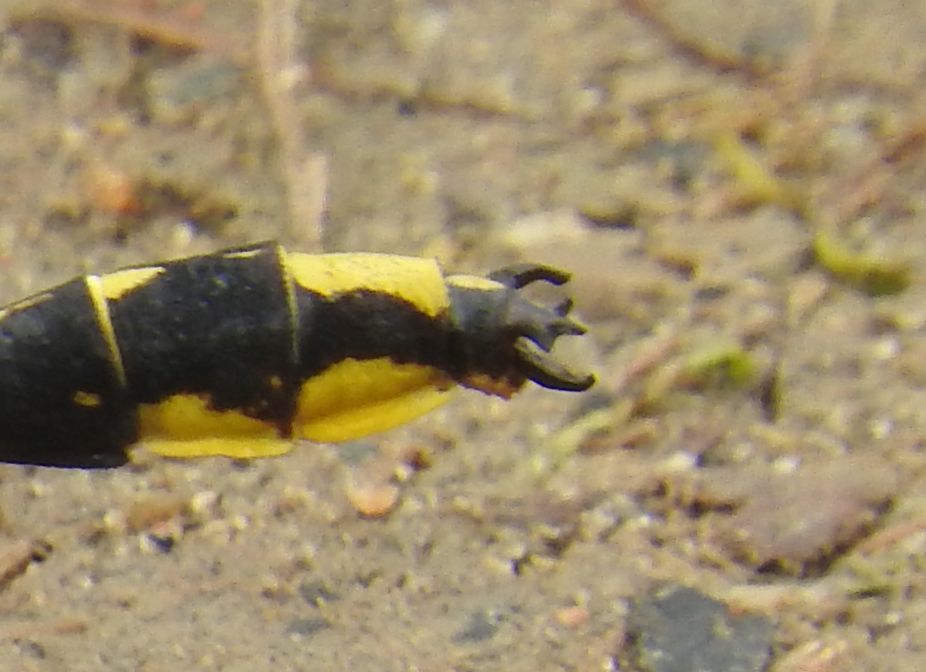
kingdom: Animalia
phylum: Arthropoda
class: Insecta
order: Odonata
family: Gomphidae
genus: Phanogomphus
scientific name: Phanogomphus graslinellus
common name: Pronghorn clubtail
